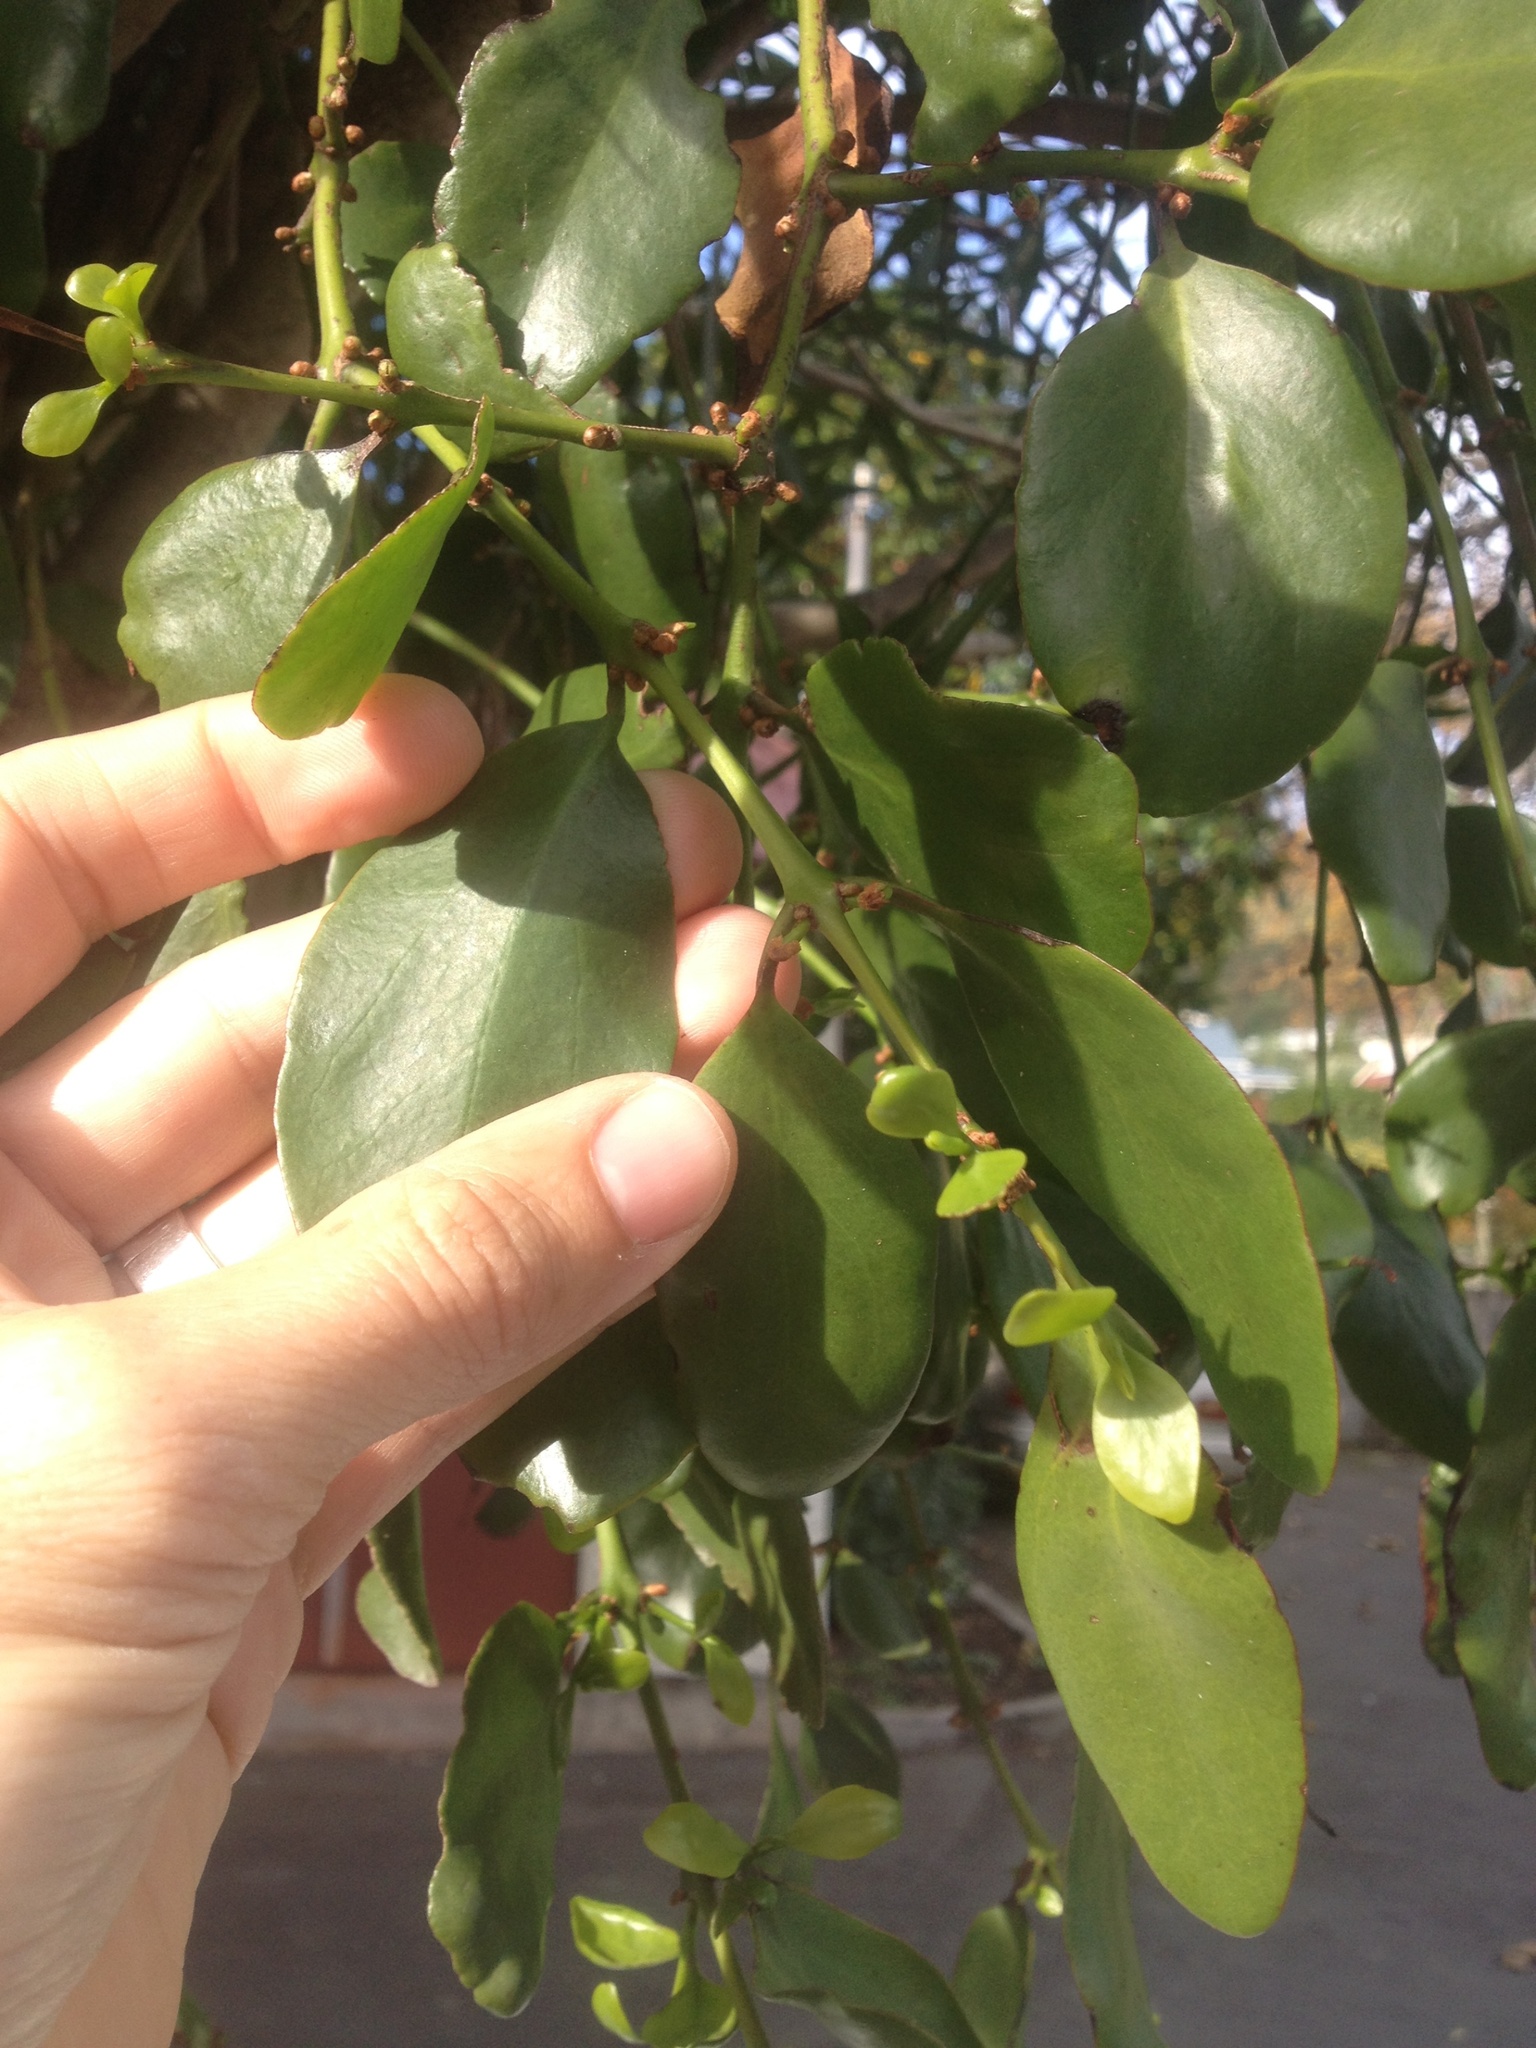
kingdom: Plantae
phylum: Tracheophyta
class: Magnoliopsida
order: Santalales
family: Loranthaceae
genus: Ileostylus
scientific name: Ileostylus micranthus
